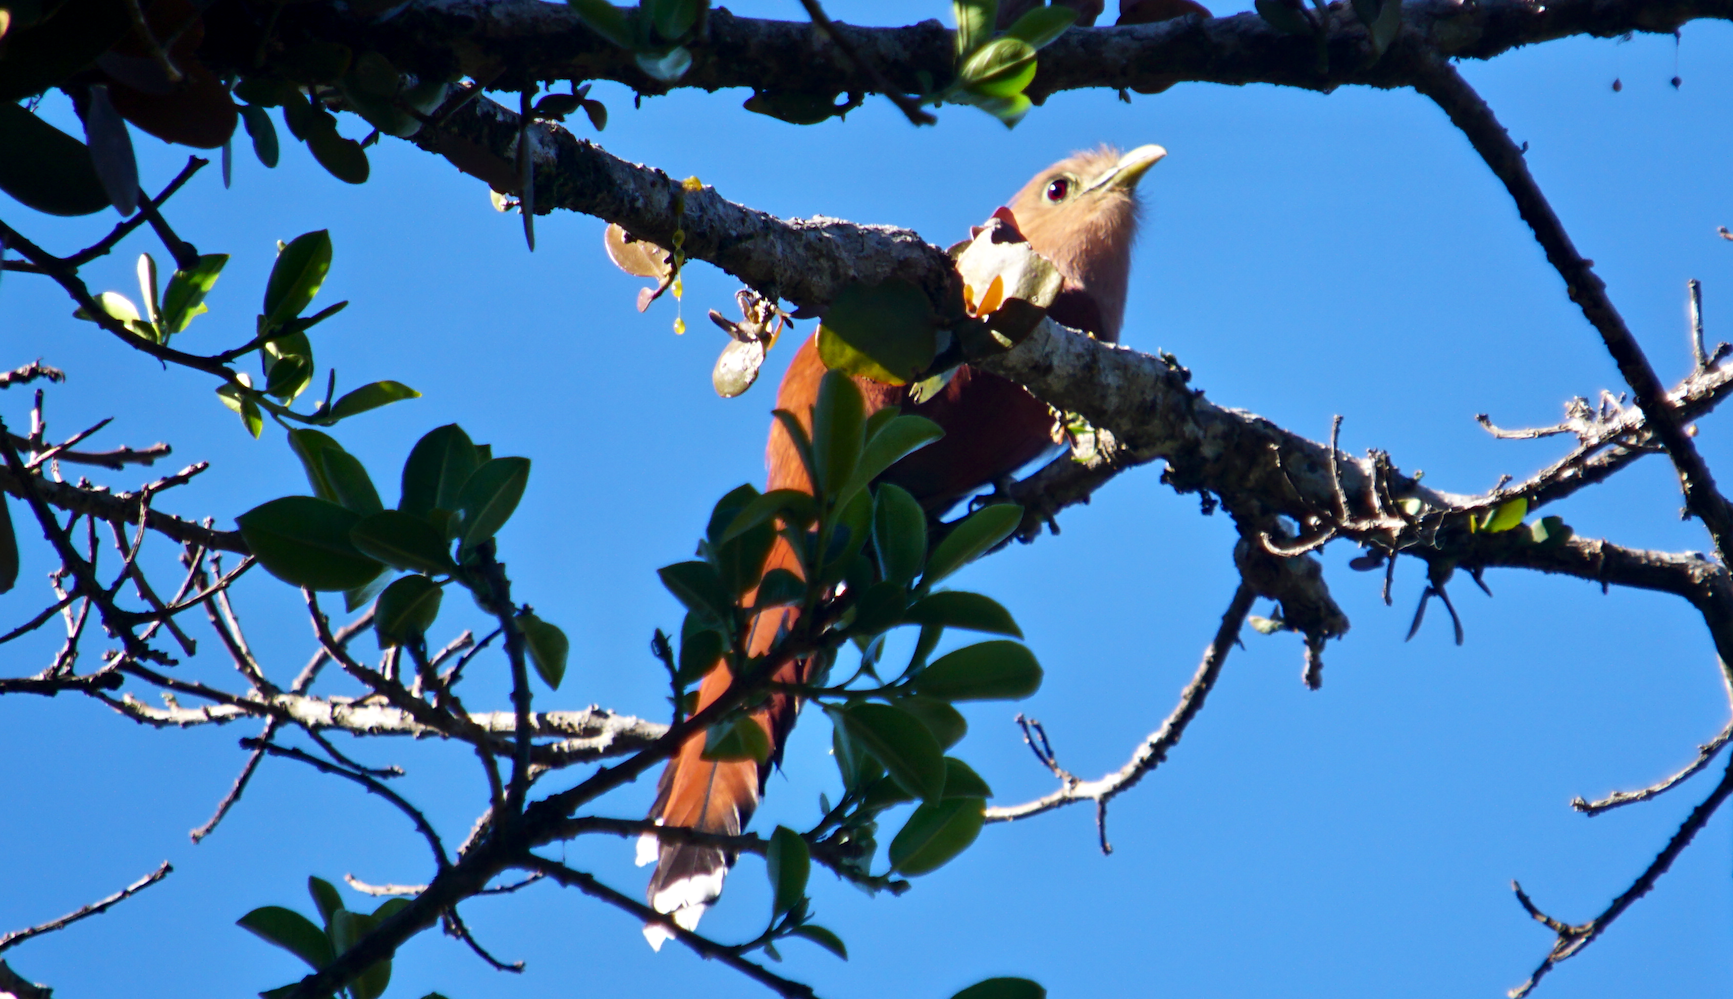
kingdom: Animalia
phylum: Chordata
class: Aves
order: Cuculiformes
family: Cuculidae
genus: Piaya
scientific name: Piaya cayana
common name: Squirrel cuckoo
